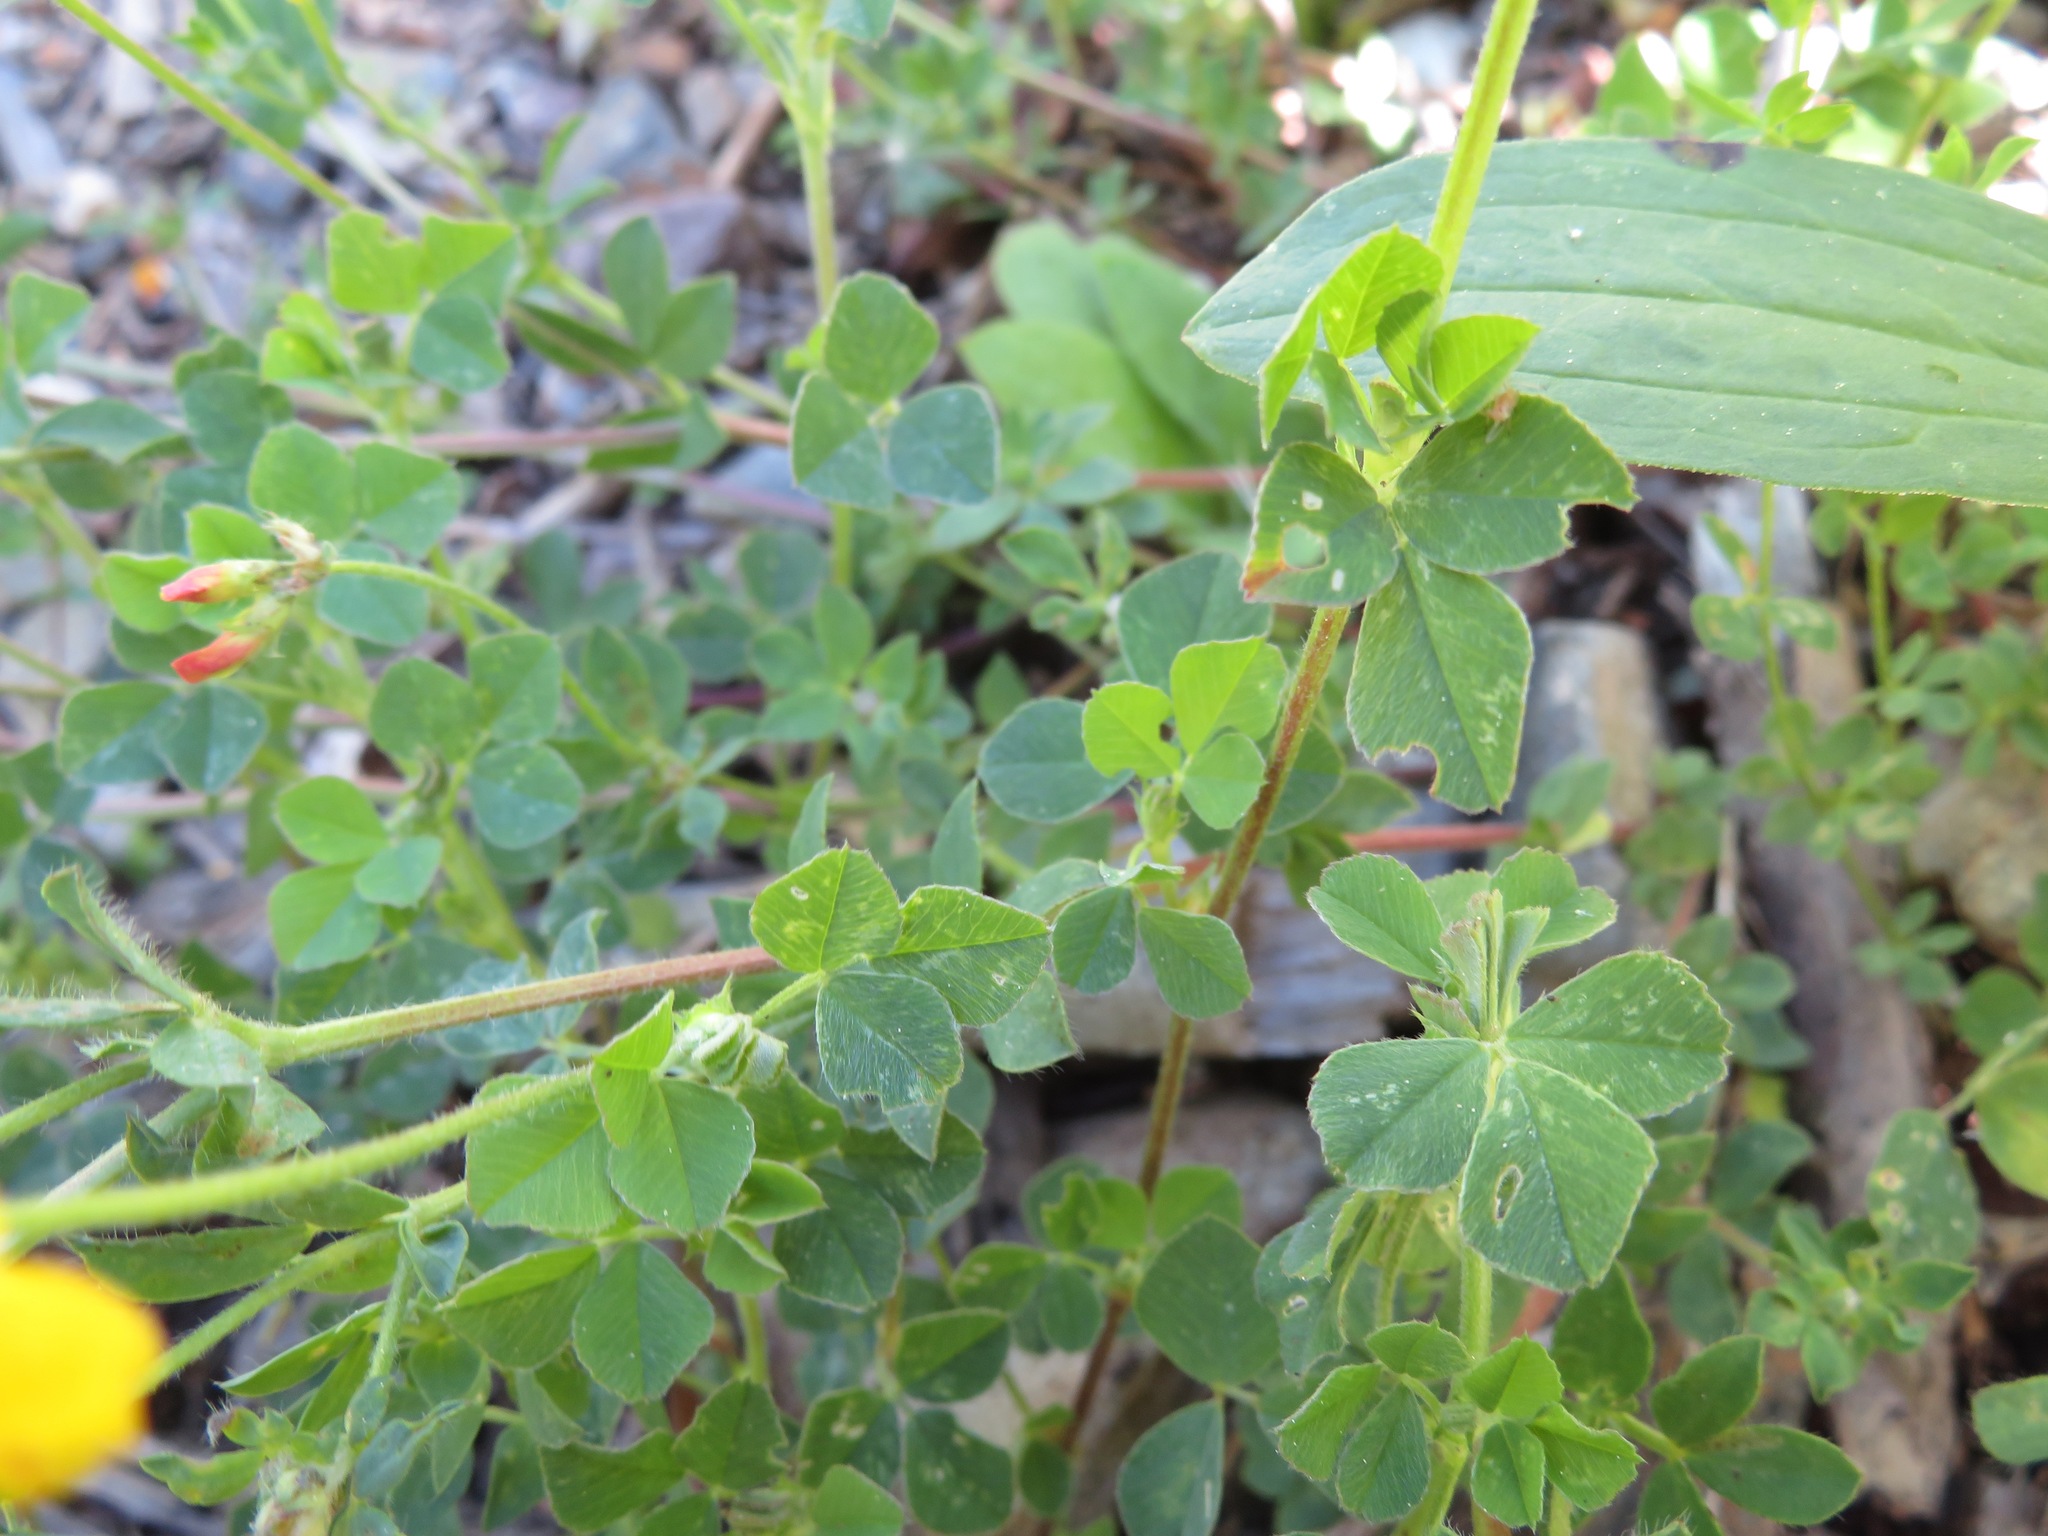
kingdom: Plantae
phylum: Tracheophyta
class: Magnoliopsida
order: Fabales
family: Fabaceae
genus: Lotus
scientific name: Lotus corniculatus
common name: Common bird's-foot-trefoil
